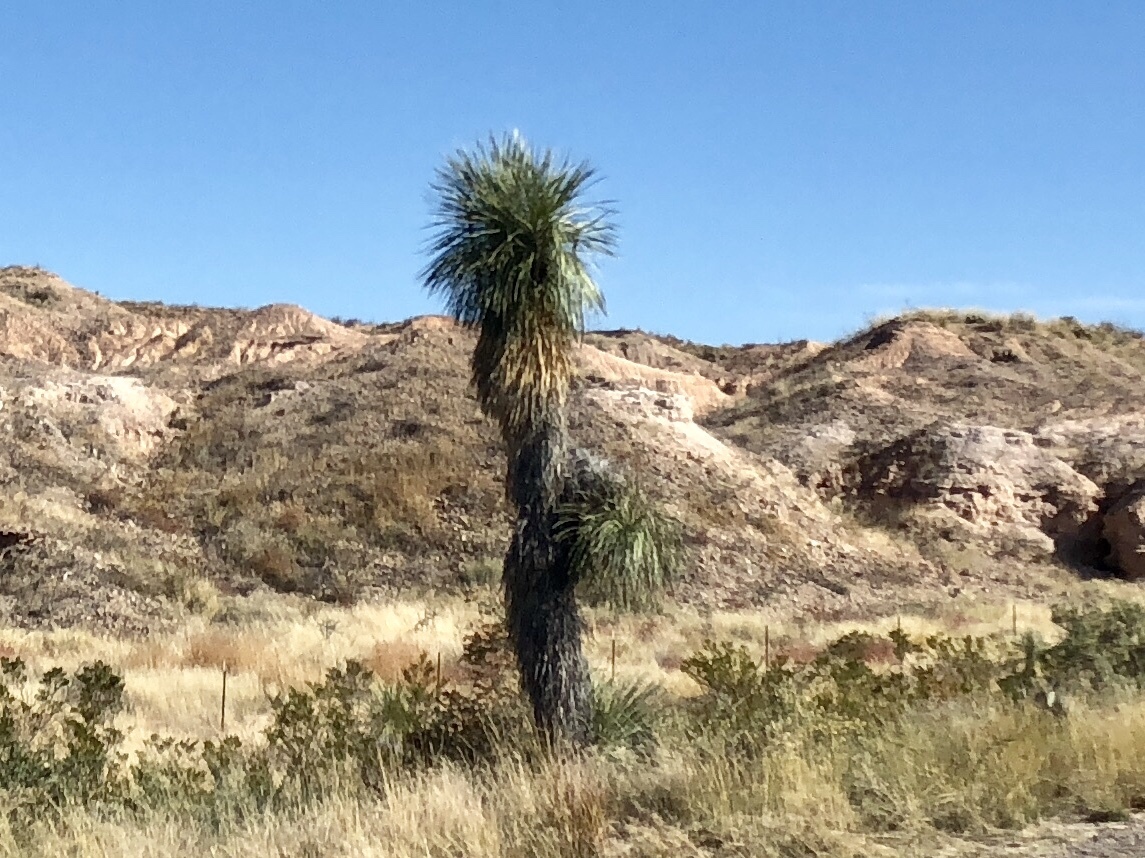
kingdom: Plantae
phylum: Tracheophyta
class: Liliopsida
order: Asparagales
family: Asparagaceae
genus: Yucca
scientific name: Yucca elata
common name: Palmella
